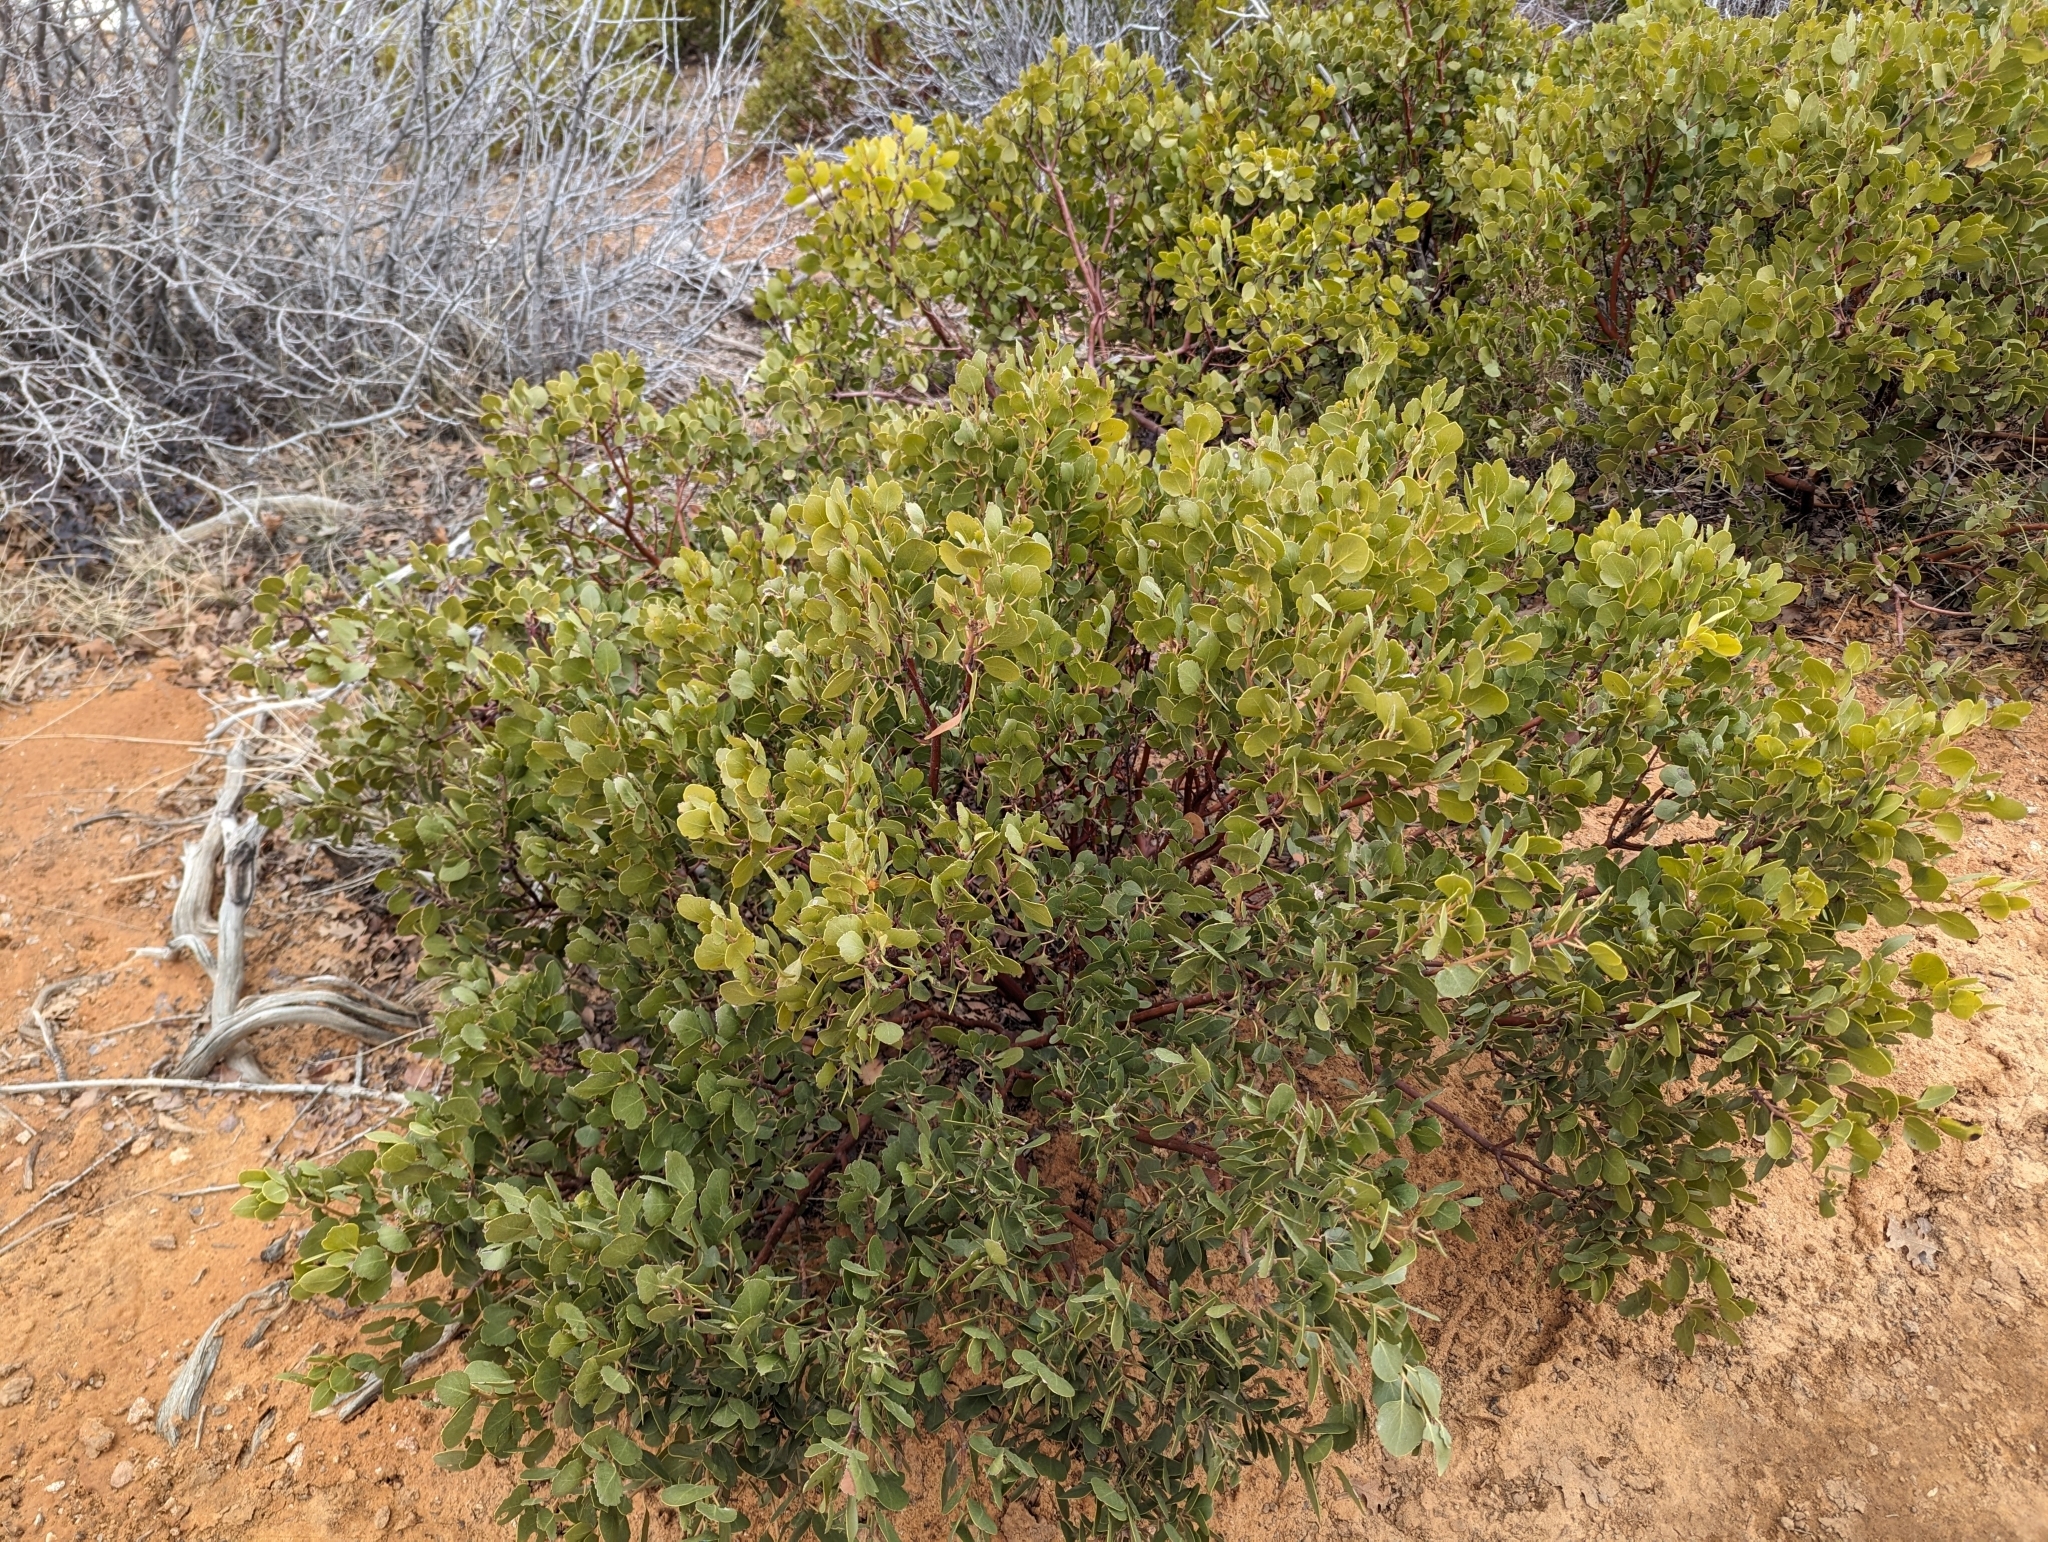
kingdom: Plantae
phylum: Tracheophyta
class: Magnoliopsida
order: Ericales
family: Ericaceae
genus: Arctostaphylos
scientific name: Arctostaphylos patula
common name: Green-leaf manzanita
